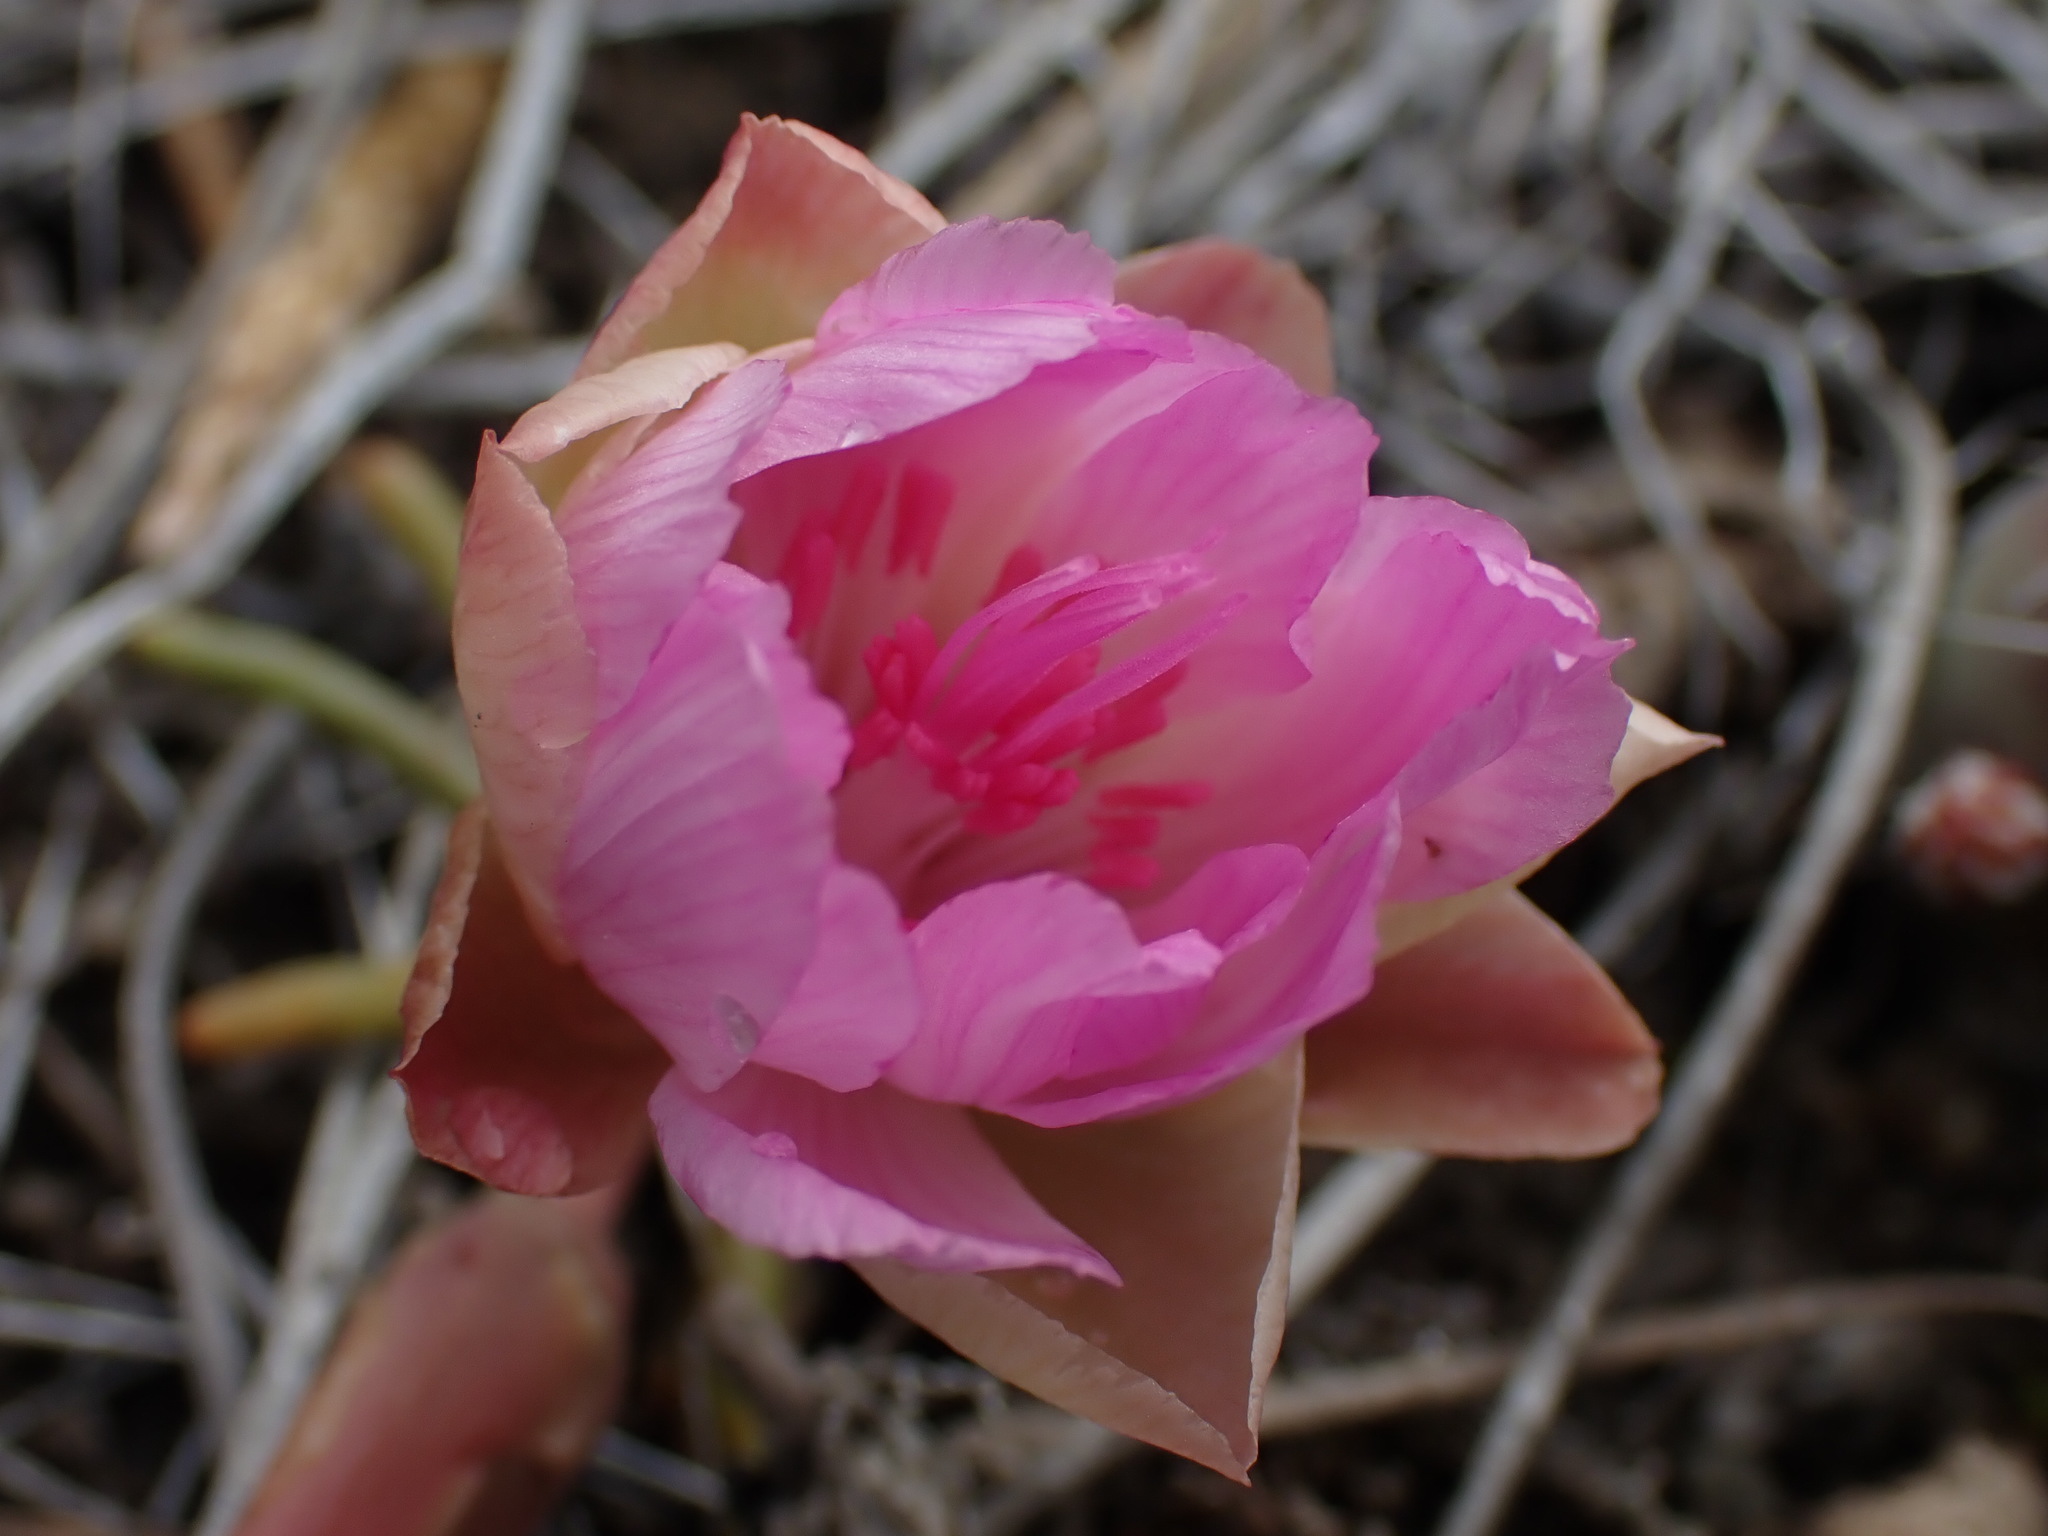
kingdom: Plantae
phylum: Tracheophyta
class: Magnoliopsida
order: Caryophyllales
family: Montiaceae
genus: Lewisia
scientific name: Lewisia rediviva
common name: Bitter-root
